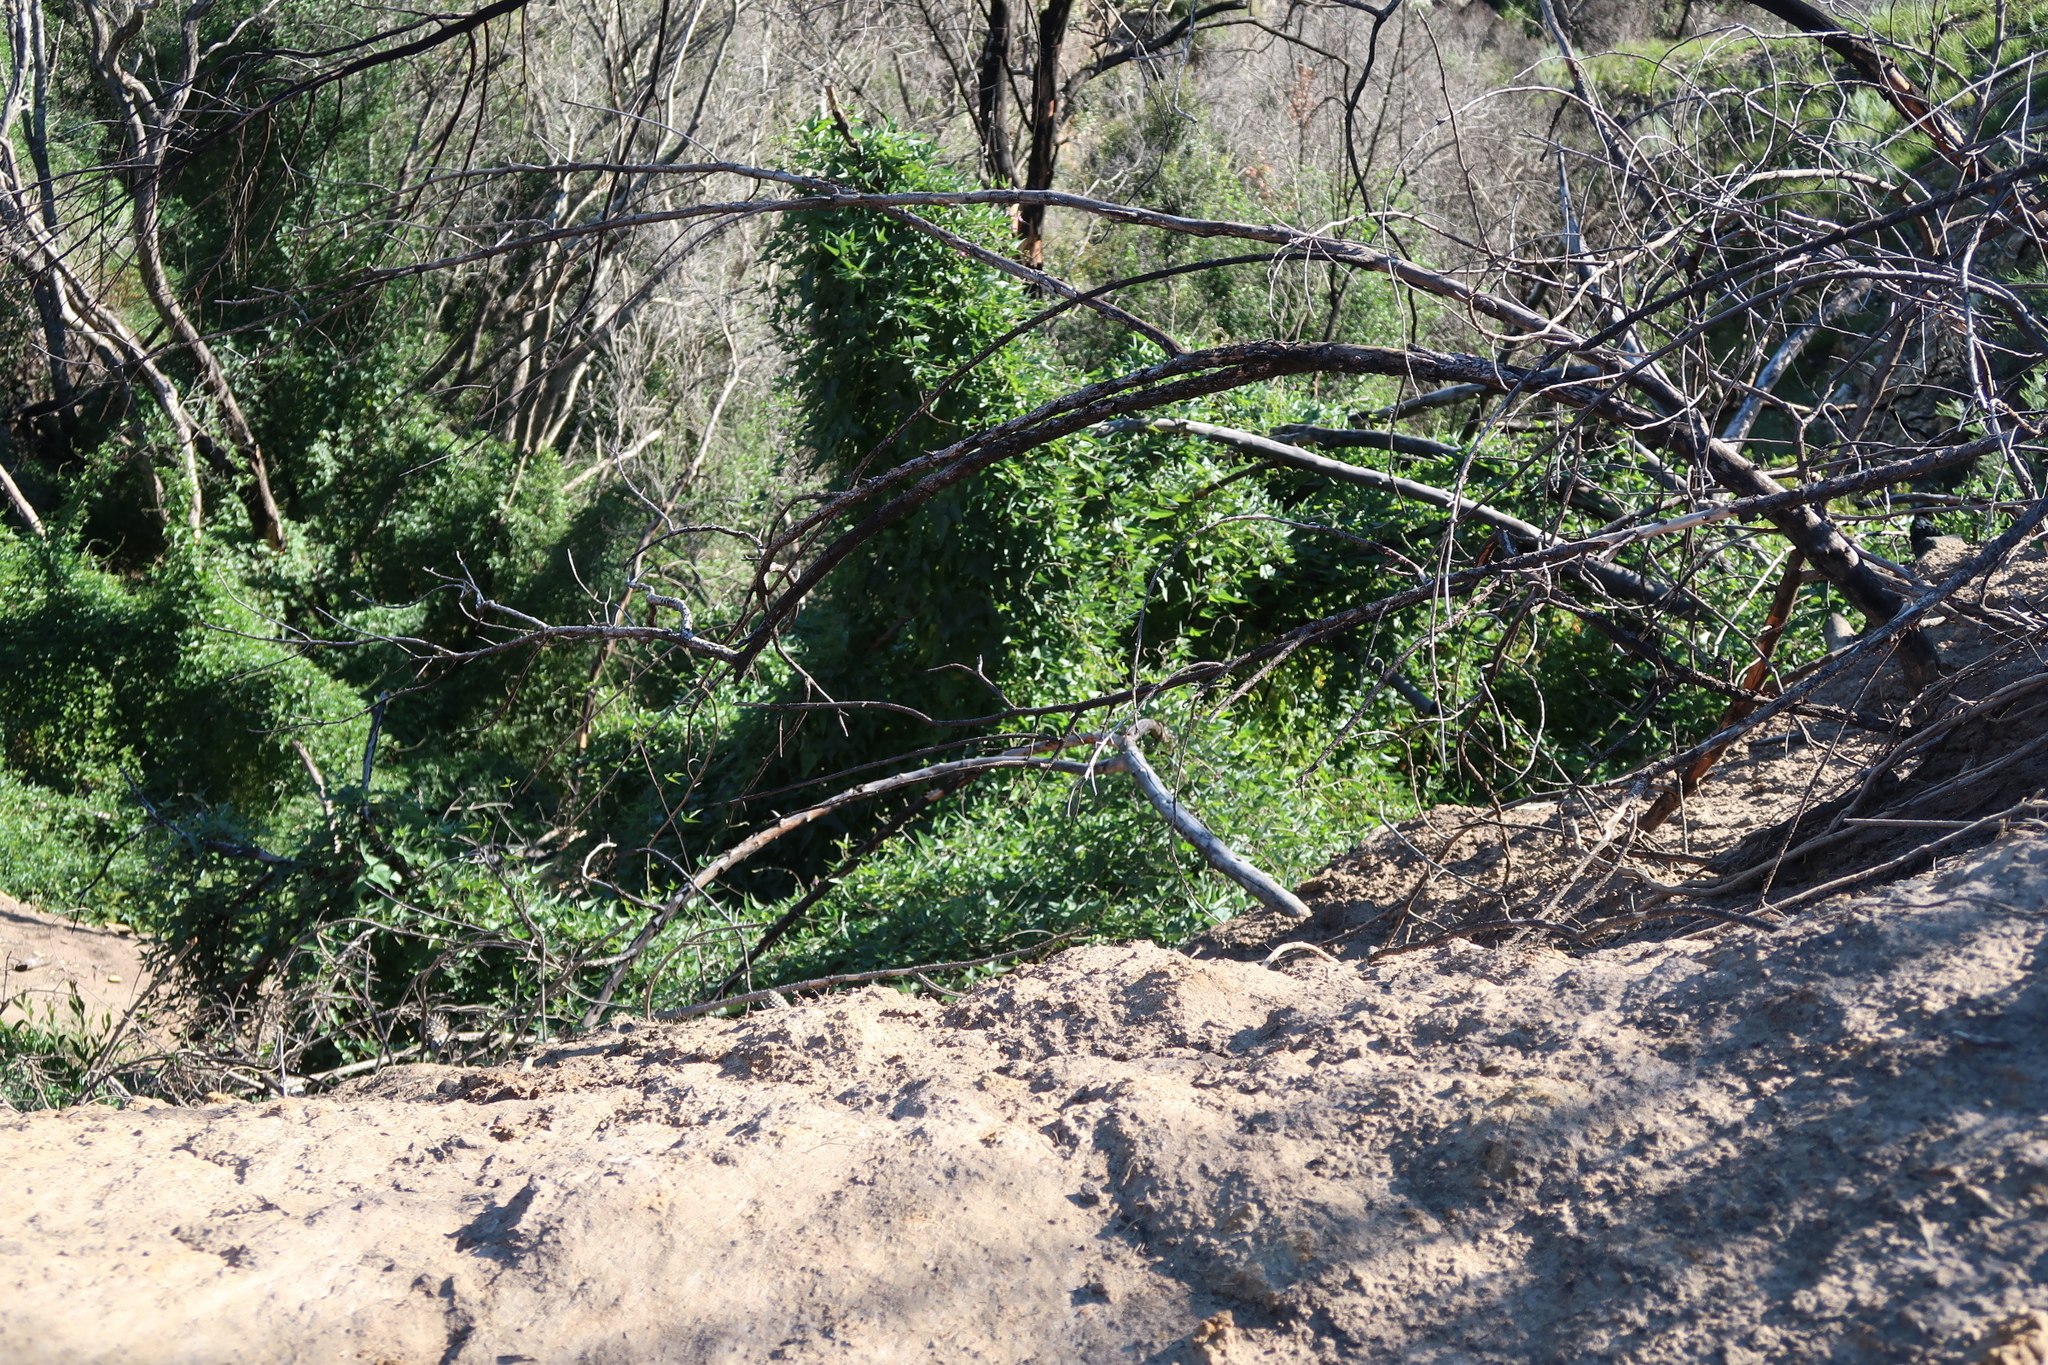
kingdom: Plantae
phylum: Tracheophyta
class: Magnoliopsida
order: Fabales
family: Fabaceae
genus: Dipogon
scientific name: Dipogon lignosus
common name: Okie bean
